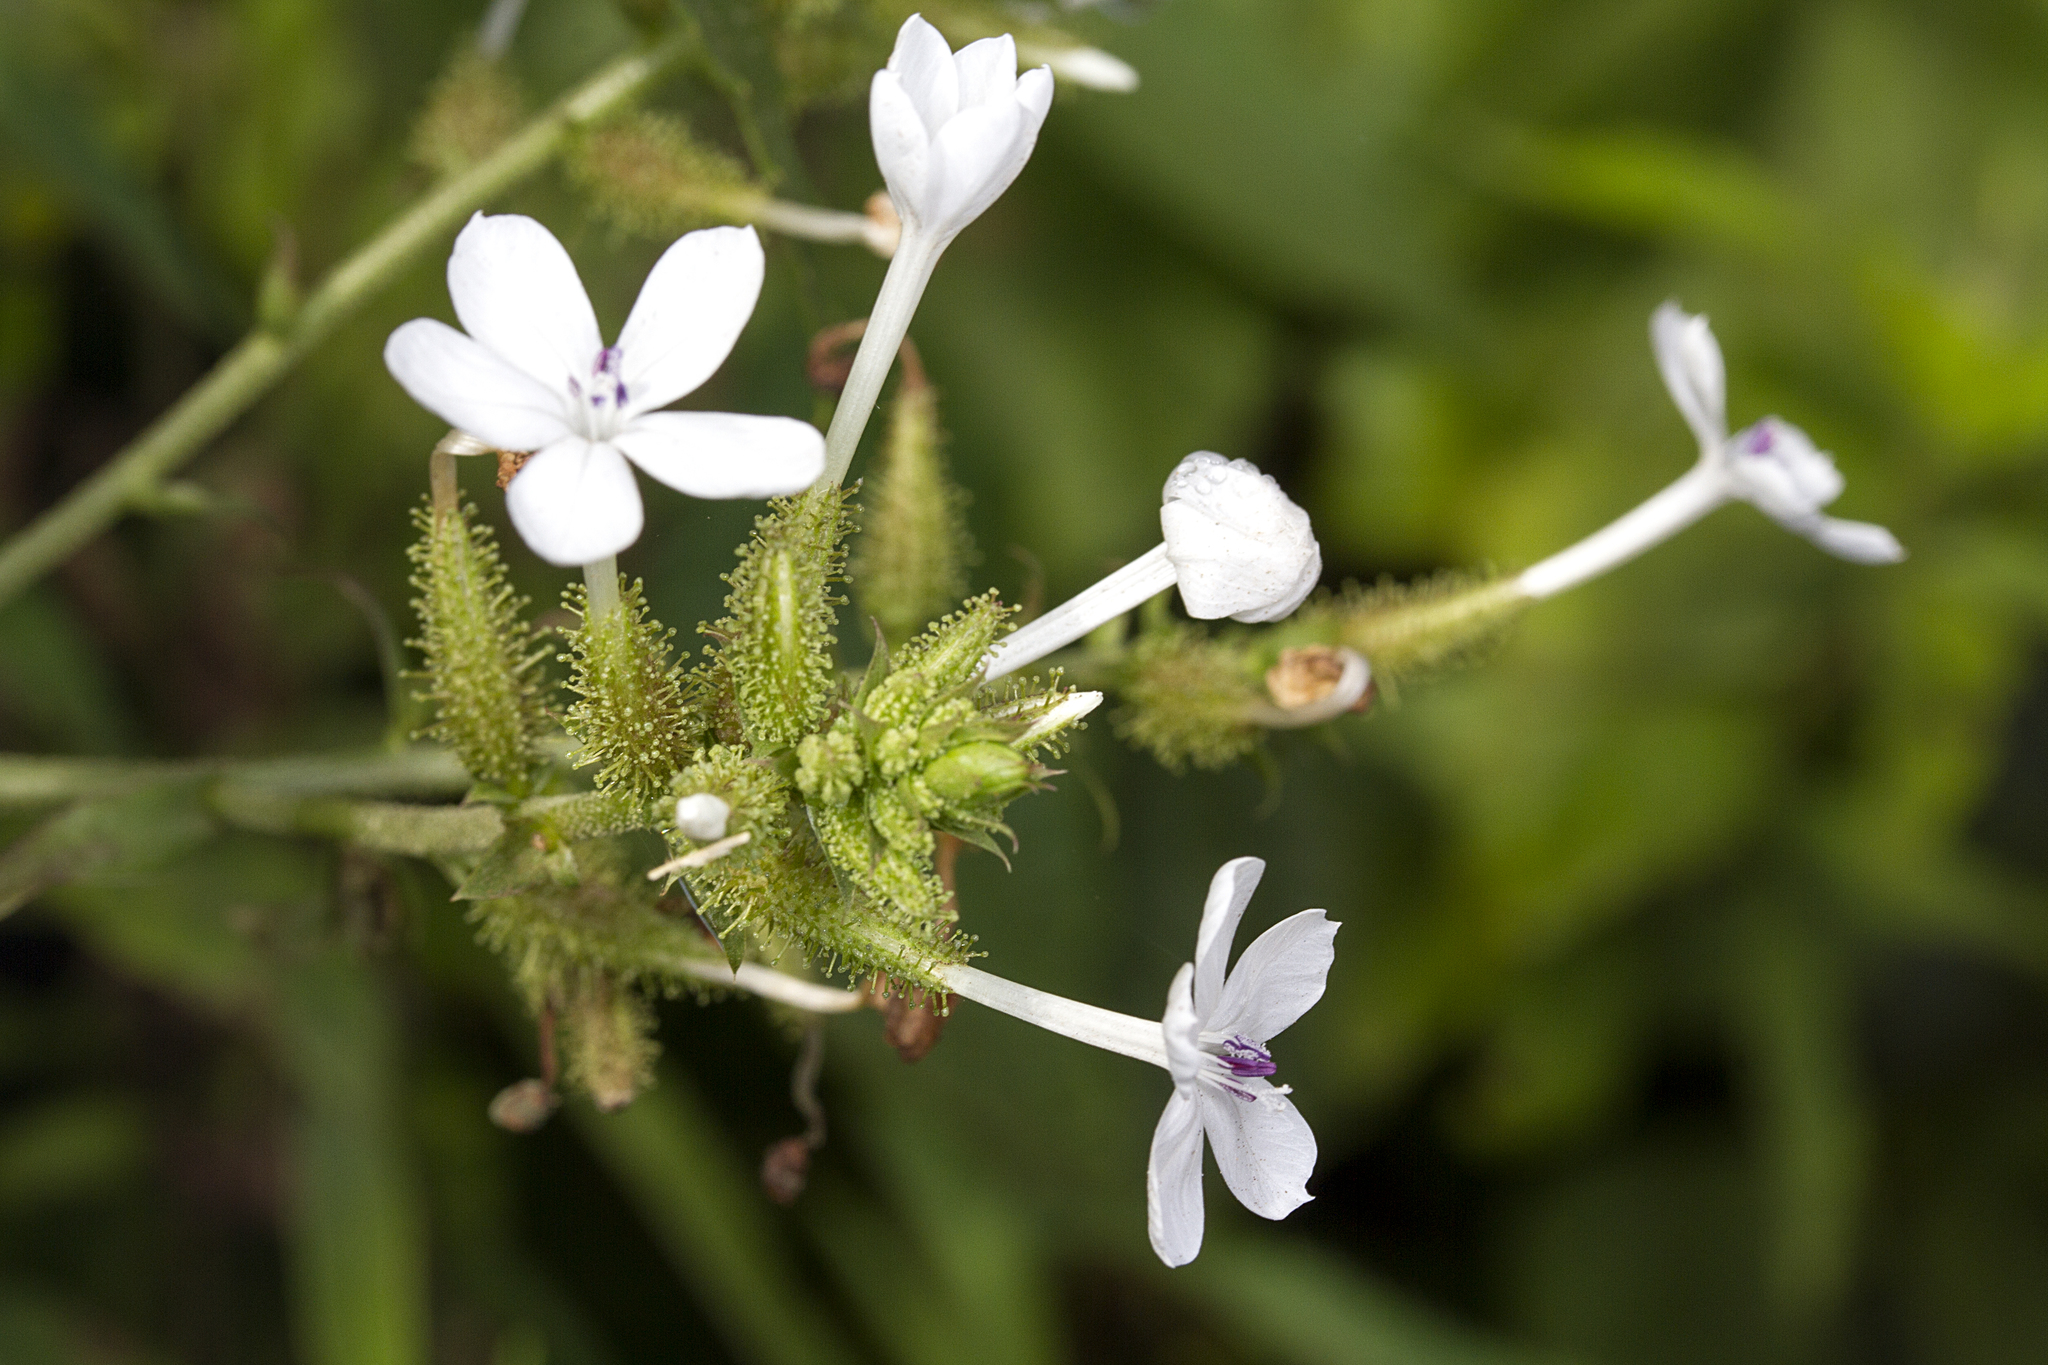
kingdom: Plantae
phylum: Tracheophyta
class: Magnoliopsida
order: Caryophyllales
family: Plumbaginaceae
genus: Plumbago
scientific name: Plumbago zeylanica
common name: Doctorbush
